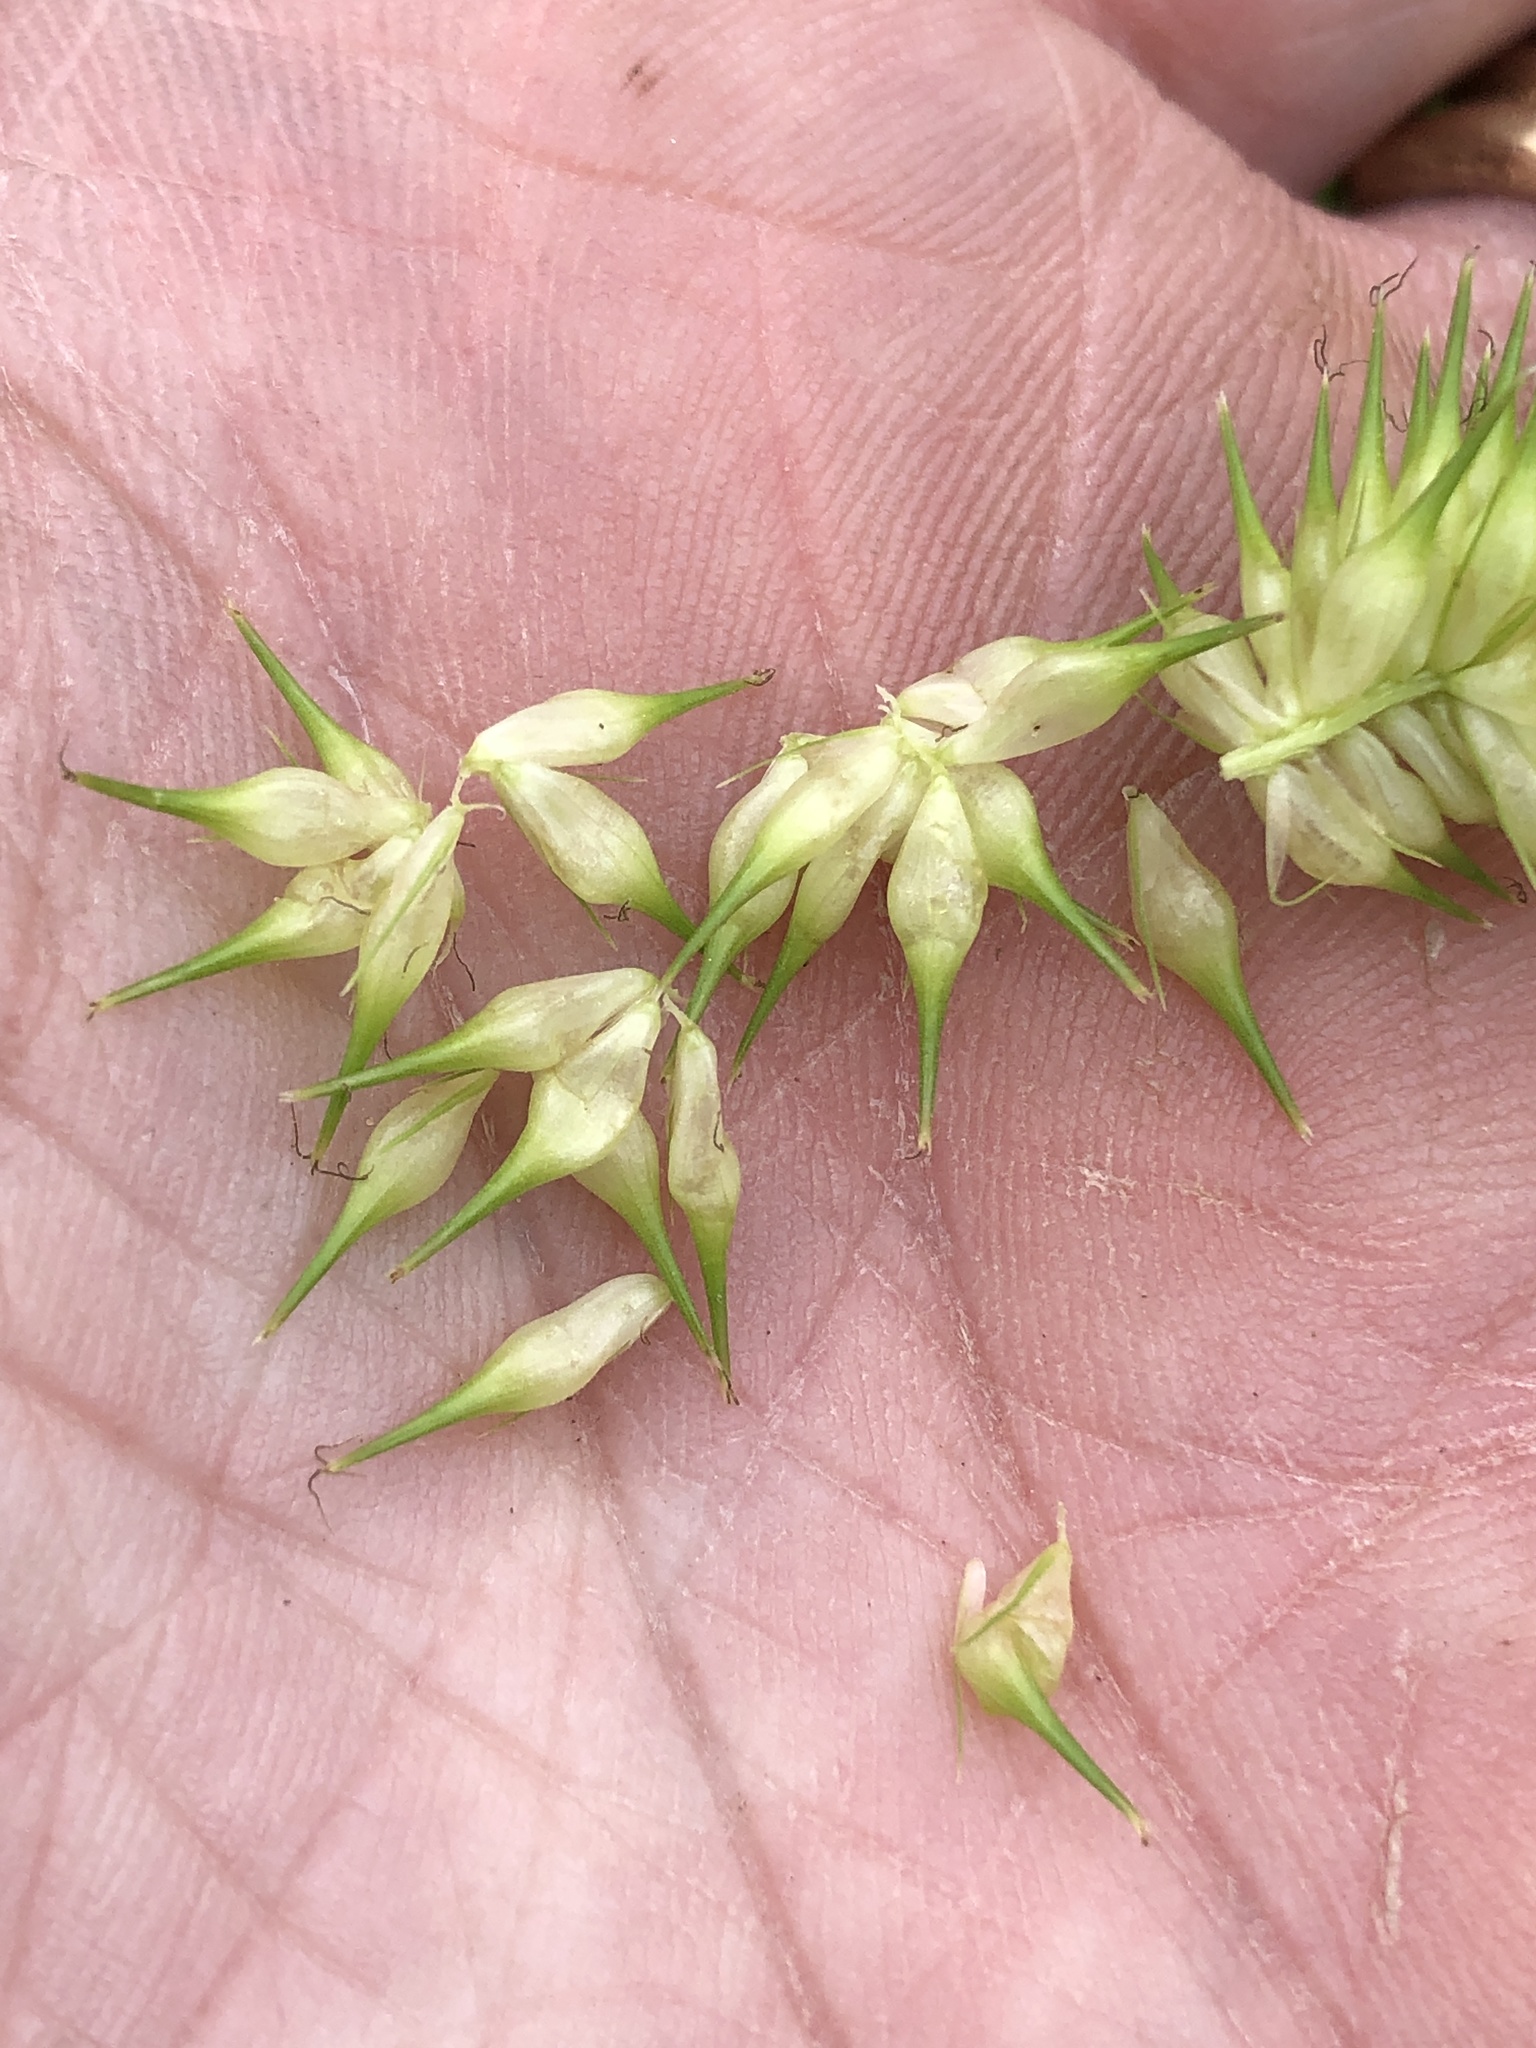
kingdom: Plantae
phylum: Tracheophyta
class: Liliopsida
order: Poales
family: Cyperaceae
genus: Carex
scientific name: Carex lurida
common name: Sallow sedge
